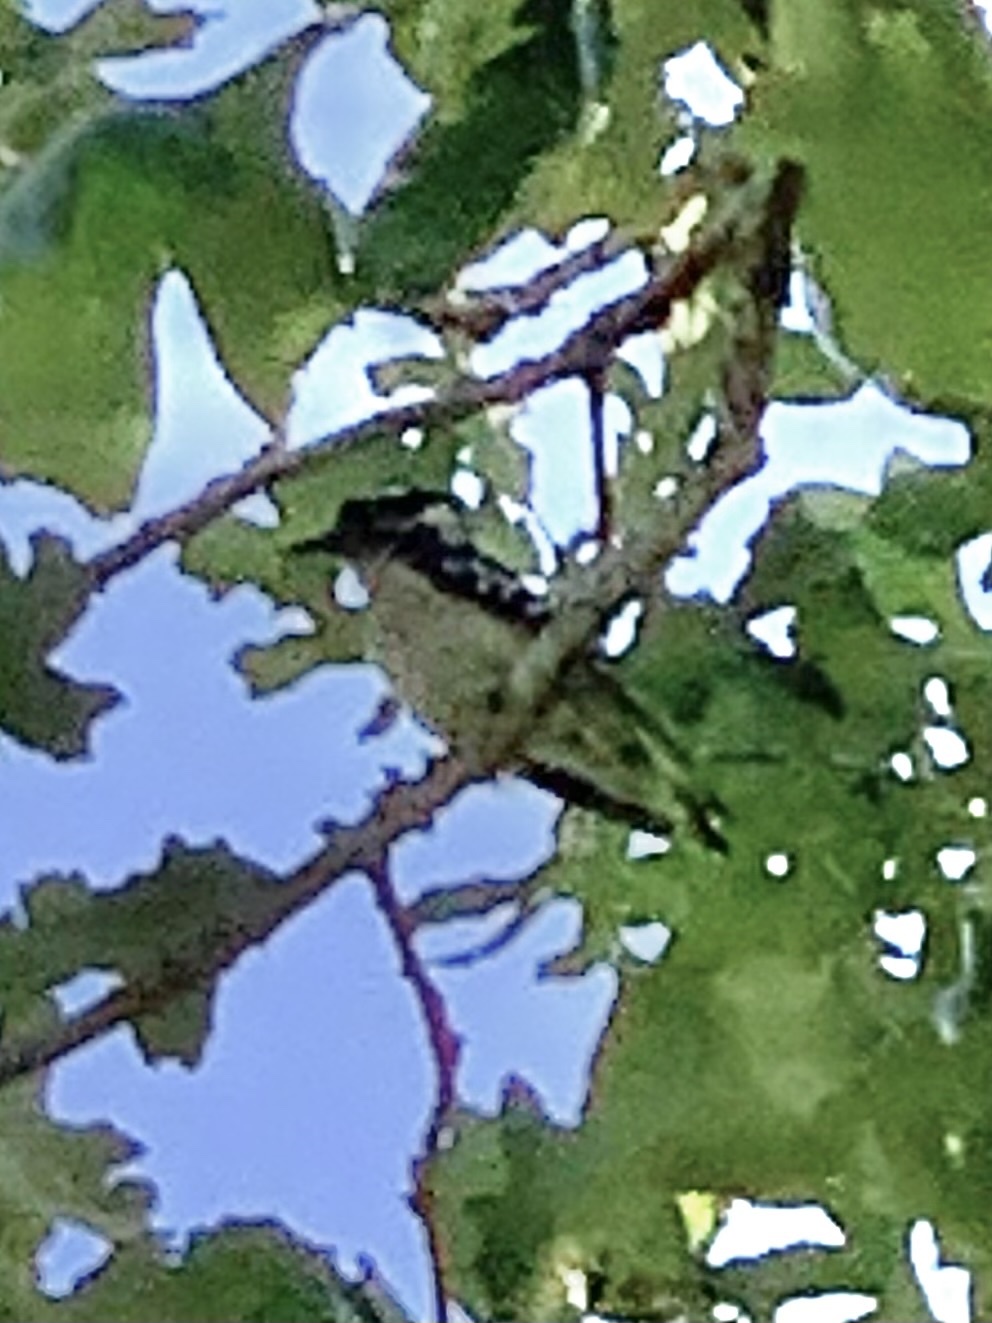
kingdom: Animalia
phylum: Chordata
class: Aves
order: Piciformes
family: Picidae
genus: Dryobates
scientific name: Dryobates pubescens
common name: Downy woodpecker
